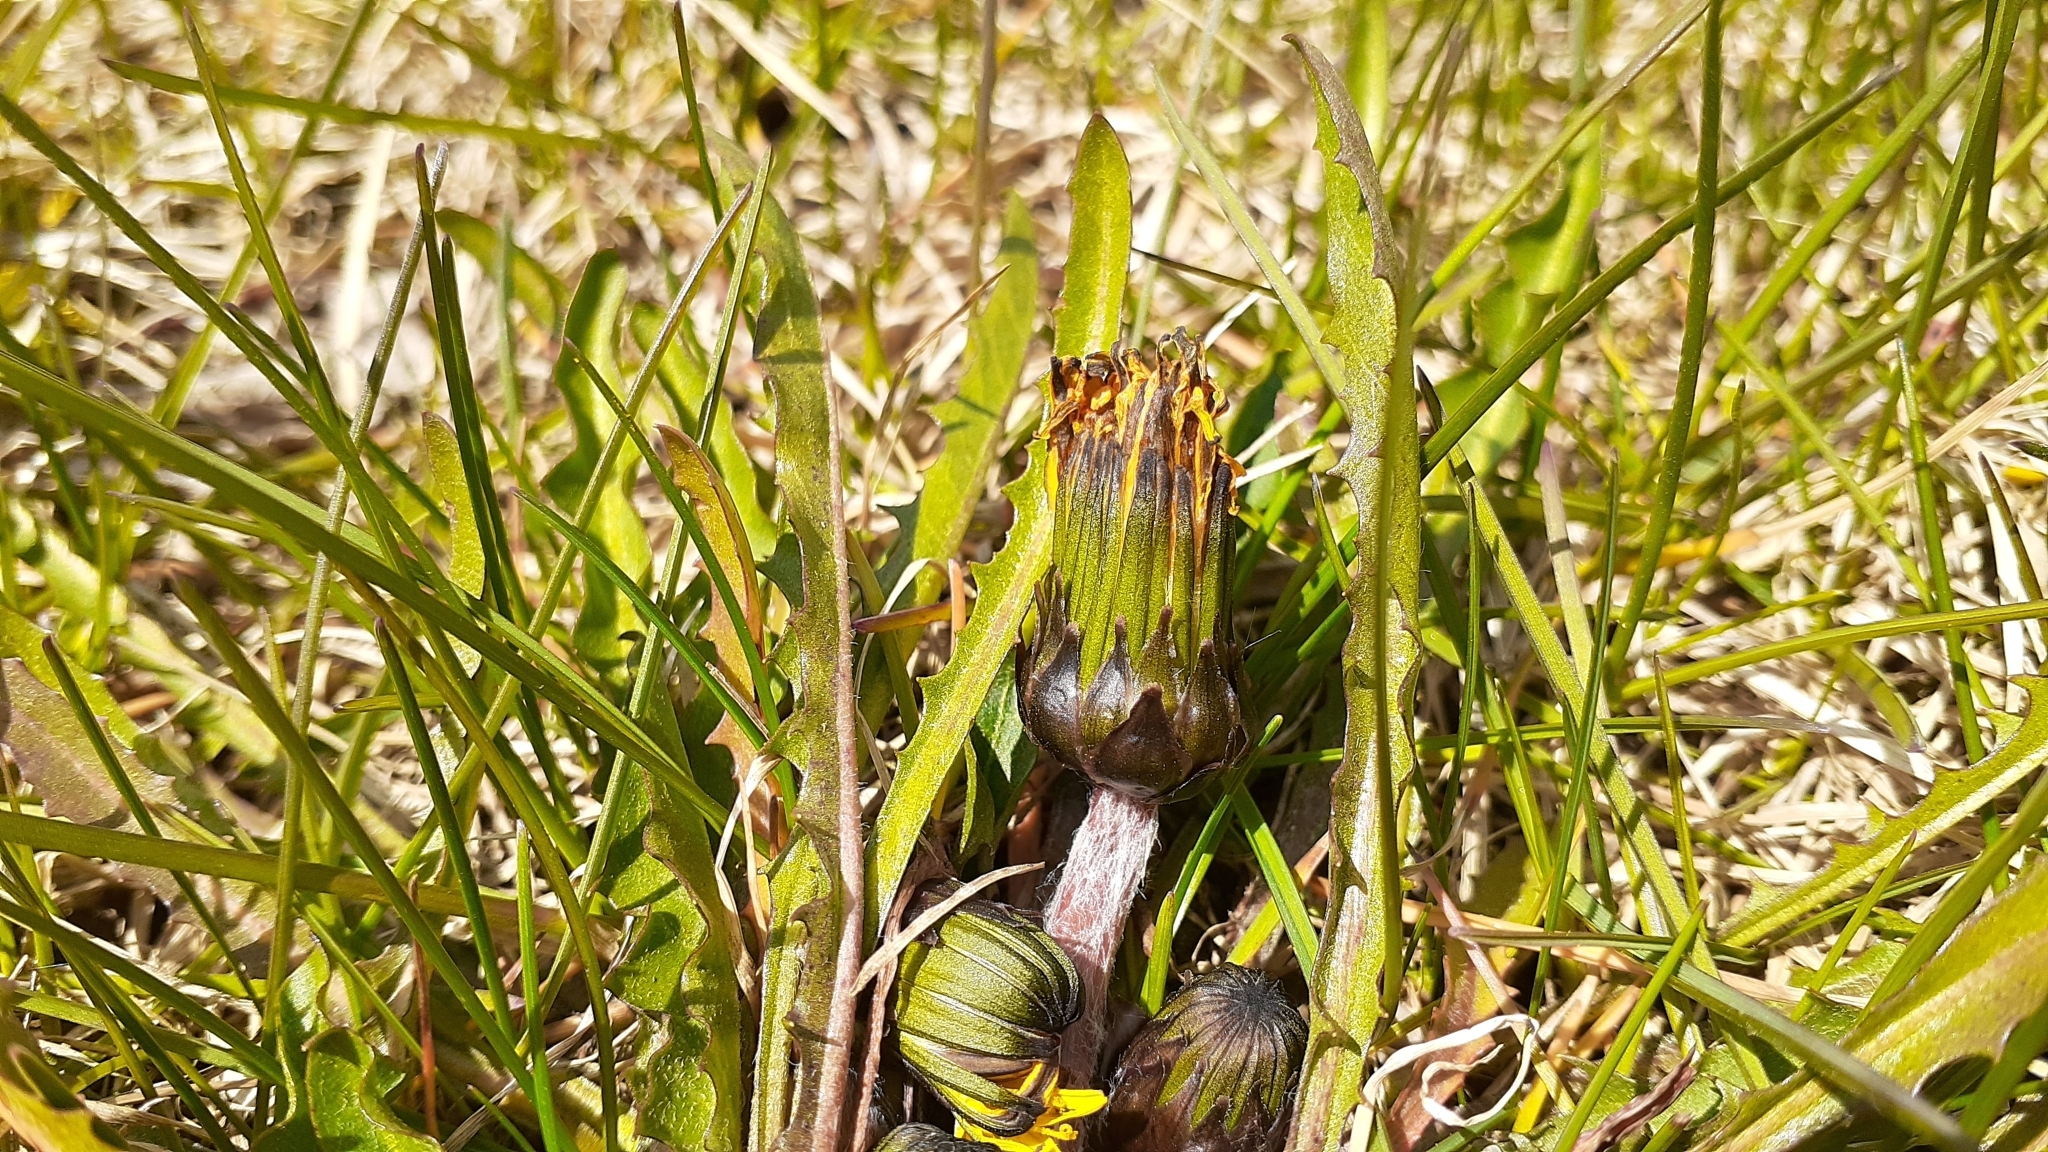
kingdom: Plantae
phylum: Tracheophyta
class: Magnoliopsida
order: Asterales
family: Asteraceae
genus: Taraxacum
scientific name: Taraxacum palustre
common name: Marsh dandelion
